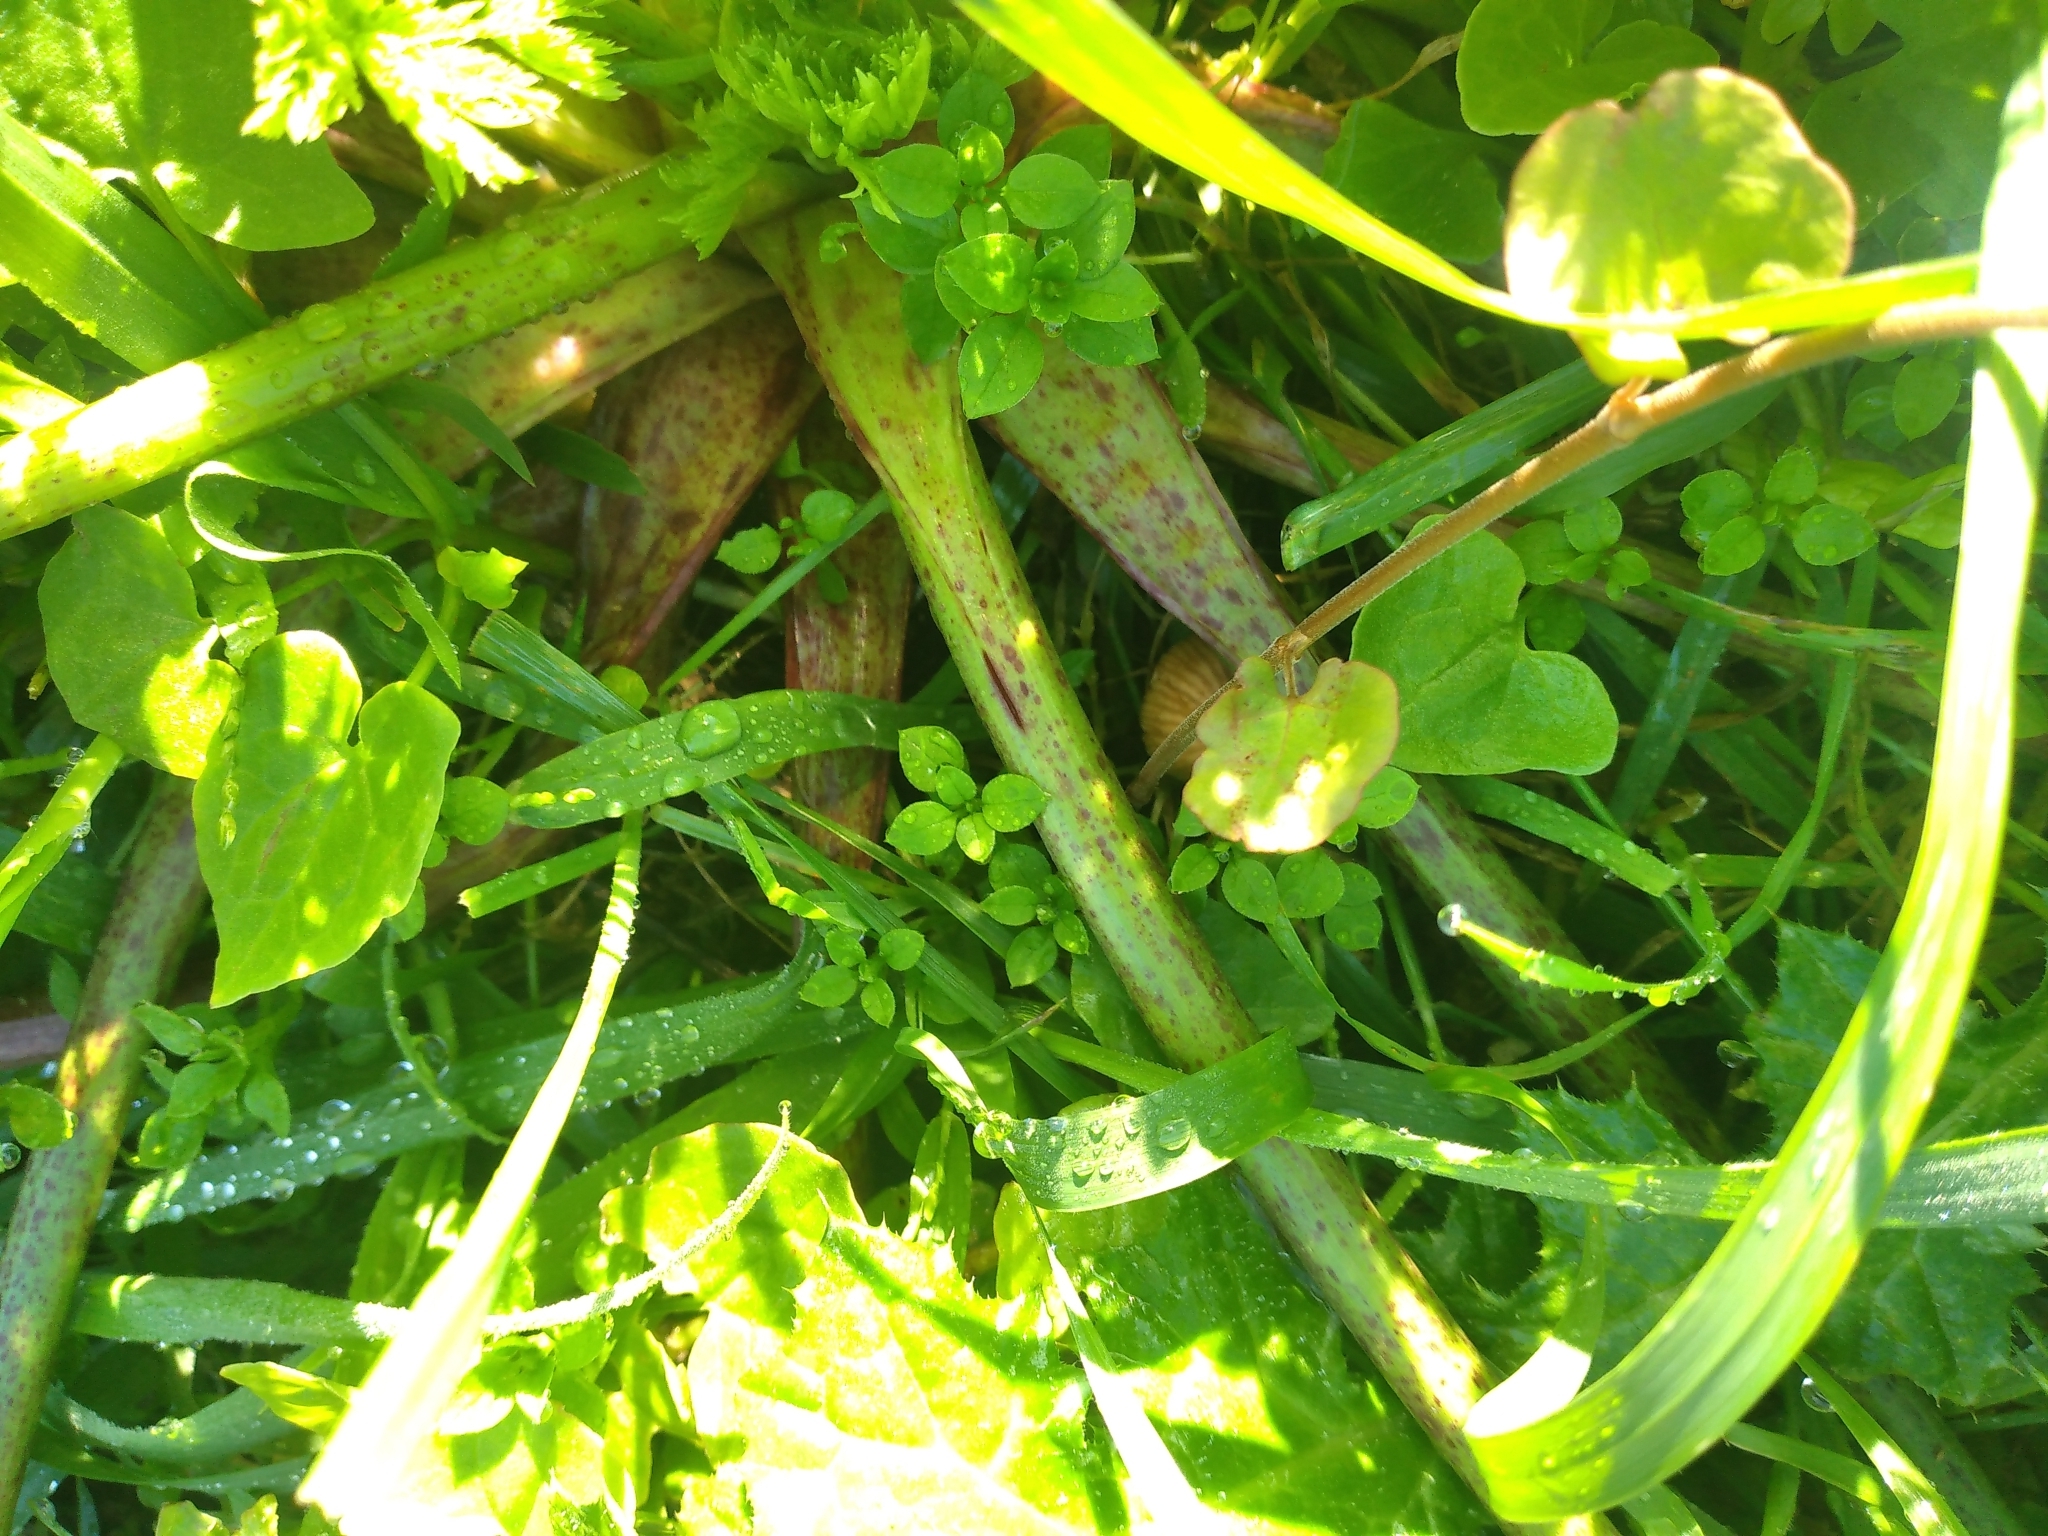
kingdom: Plantae
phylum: Tracheophyta
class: Magnoliopsida
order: Apiales
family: Apiaceae
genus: Conium
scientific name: Conium maculatum
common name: Hemlock
